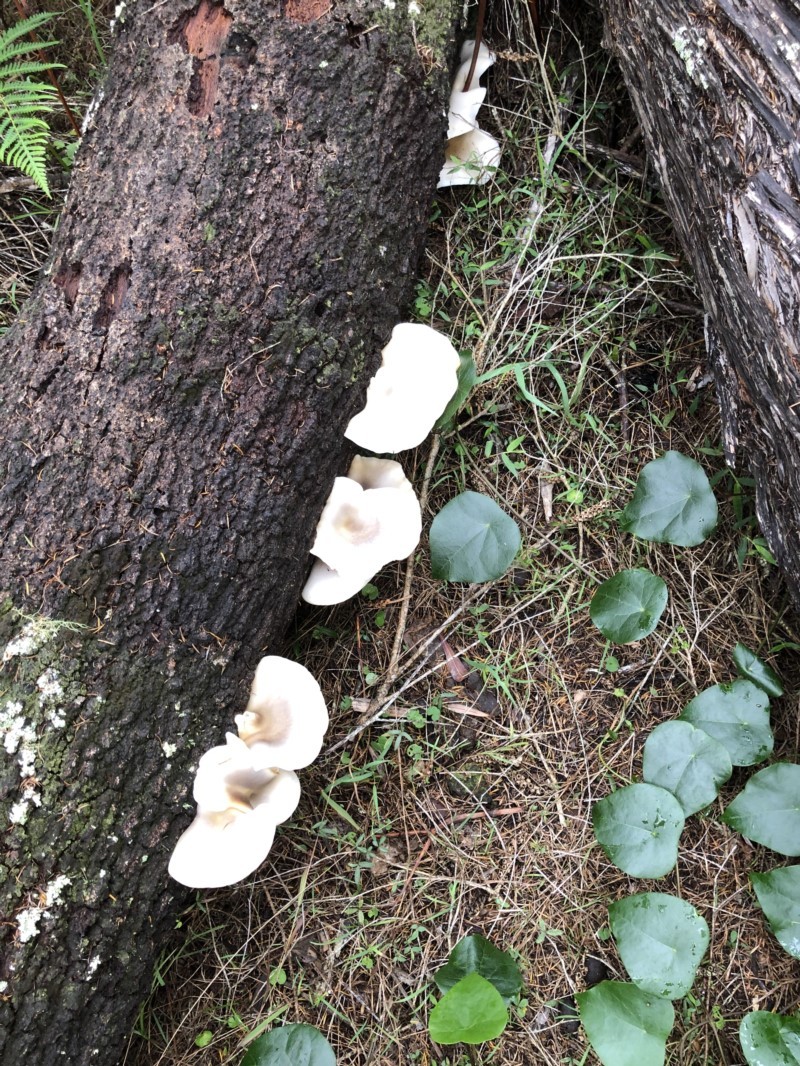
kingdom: Fungi
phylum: Basidiomycota
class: Agaricomycetes
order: Agaricales
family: Omphalotaceae
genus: Omphalotus
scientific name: Omphalotus nidiformis
